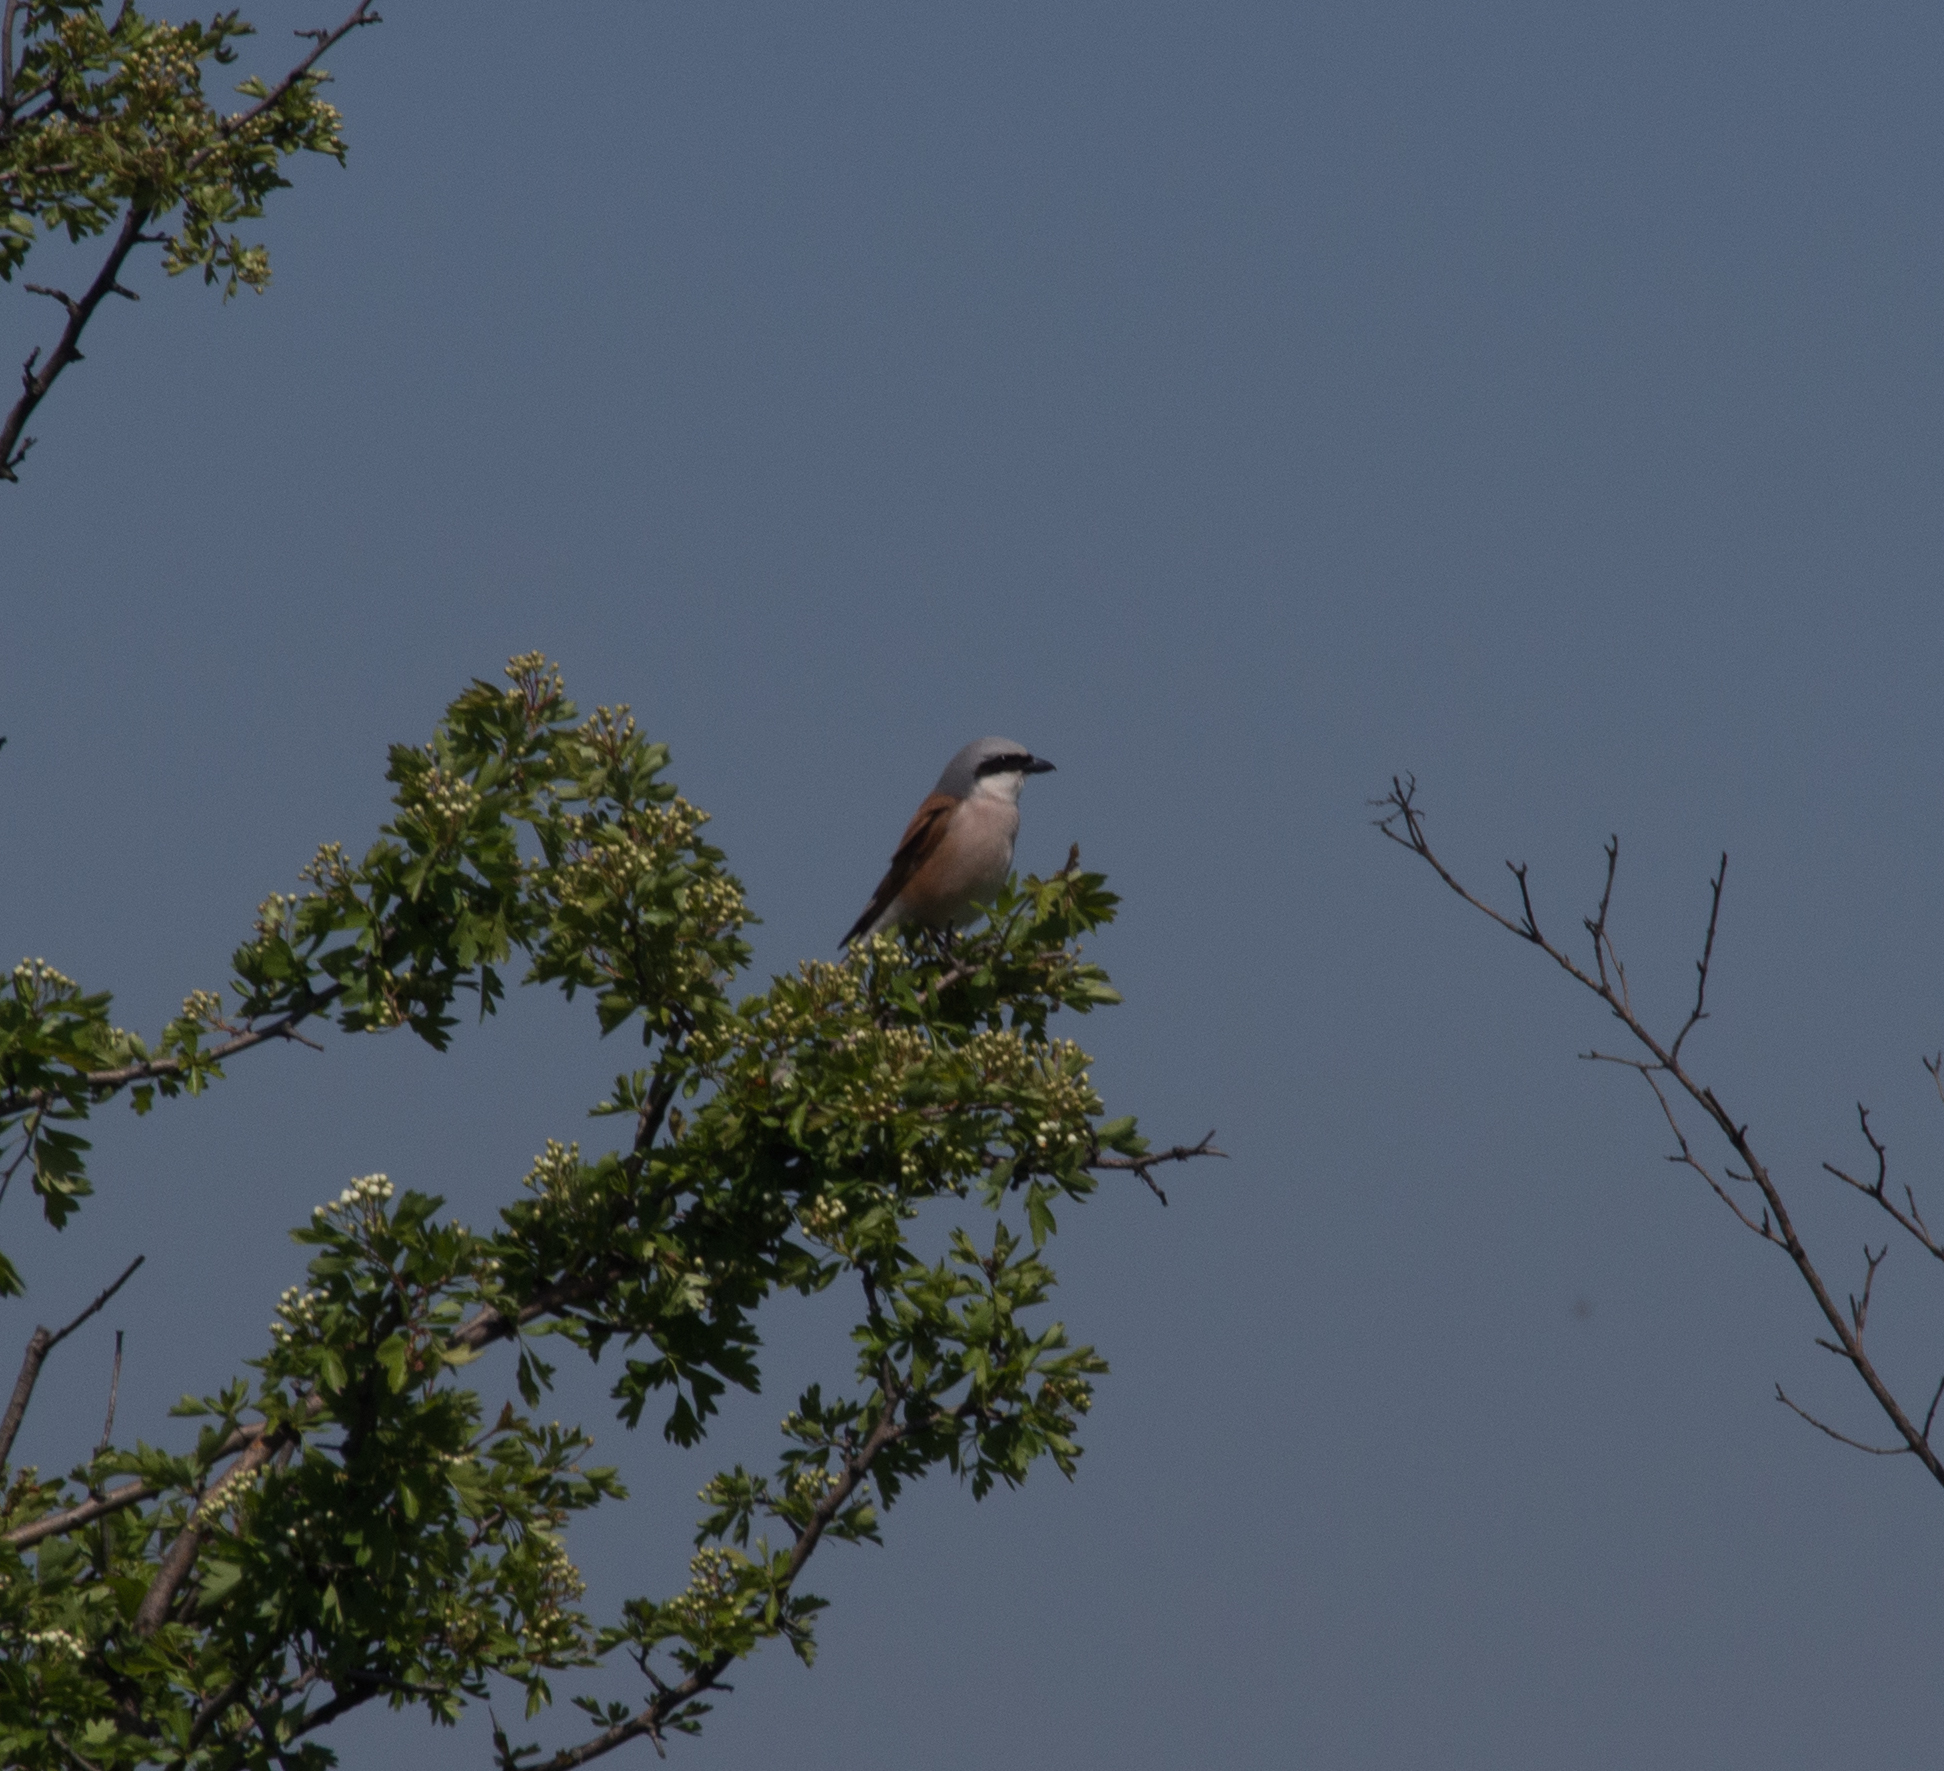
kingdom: Animalia
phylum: Chordata
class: Aves
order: Passeriformes
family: Laniidae
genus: Lanius
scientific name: Lanius collurio
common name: Red-backed shrike
